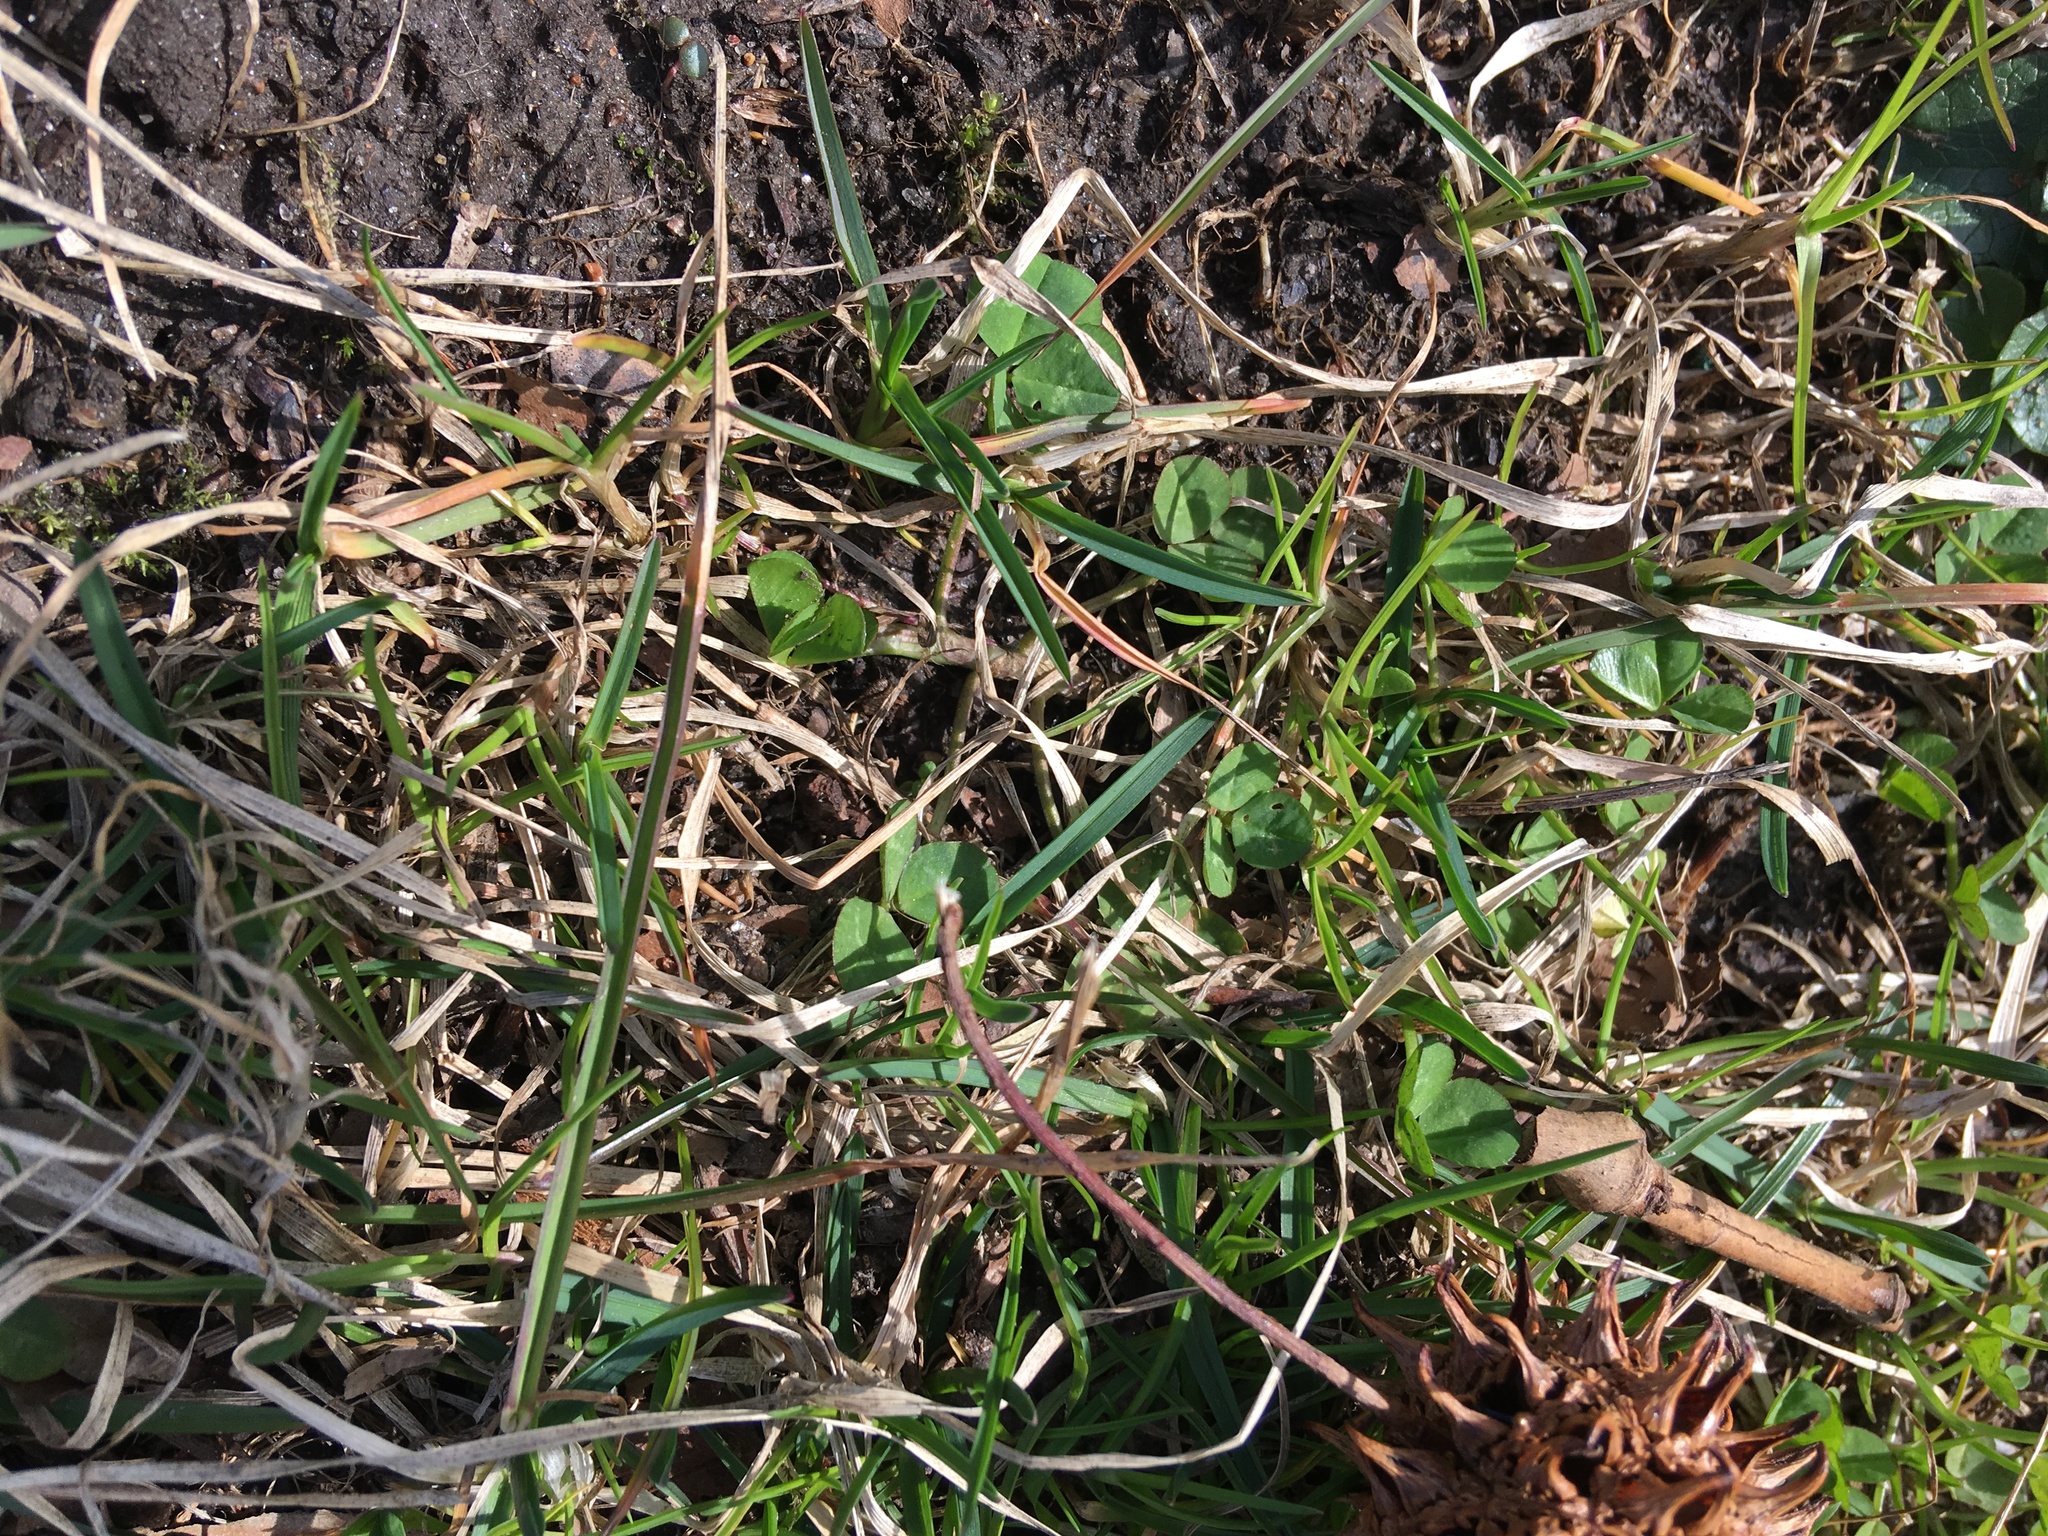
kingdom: Plantae
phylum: Tracheophyta
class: Magnoliopsida
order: Ranunculales
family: Ranunculaceae
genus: Ficaria
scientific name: Ficaria verna
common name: Lesser celandine
